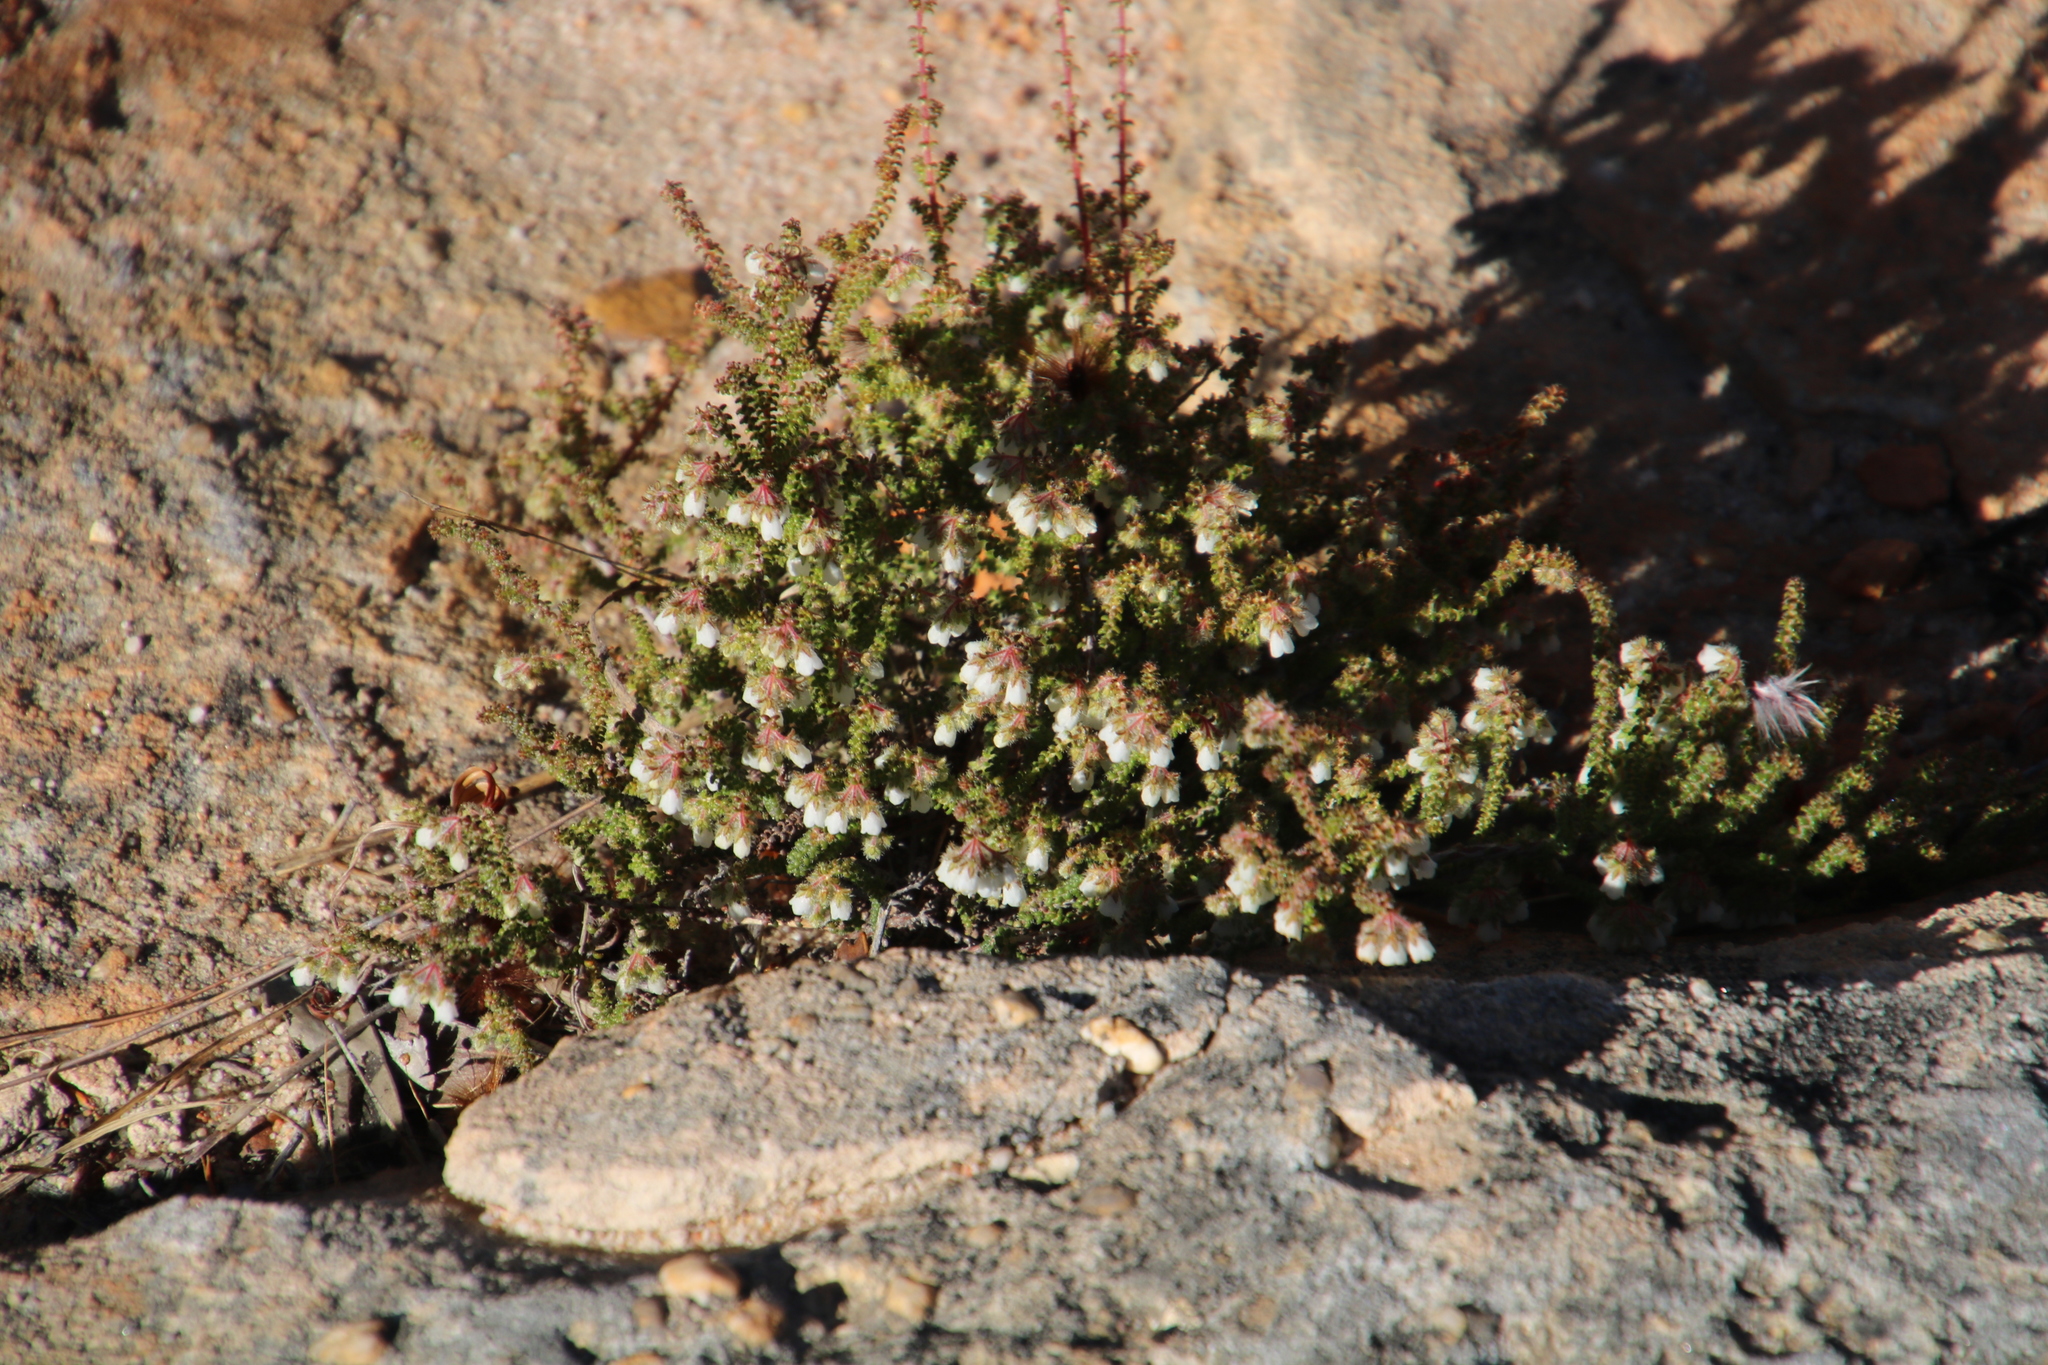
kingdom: Plantae
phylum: Tracheophyta
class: Magnoliopsida
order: Ericales
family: Ericaceae
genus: Erica
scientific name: Erica recurvifolia
